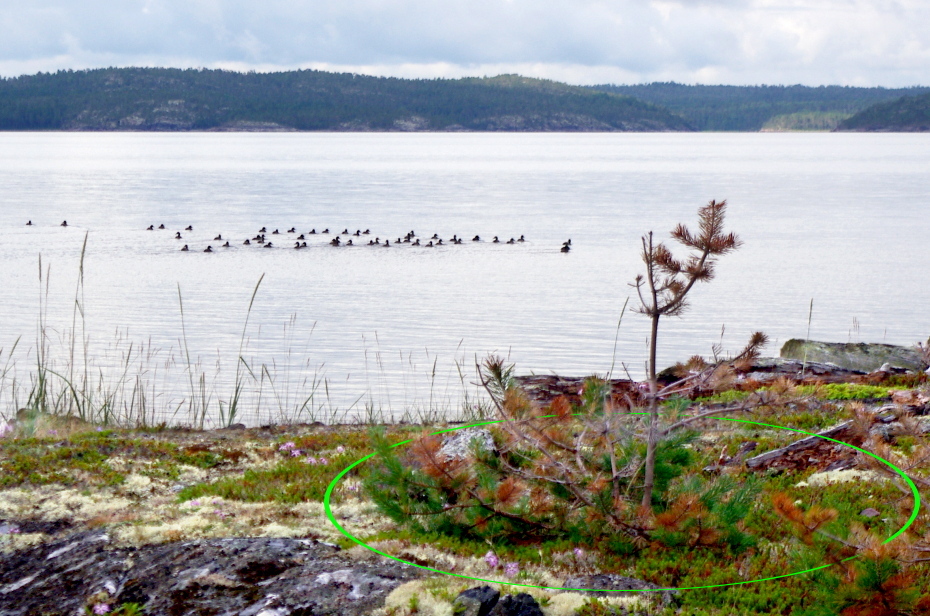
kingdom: Plantae
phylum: Tracheophyta
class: Pinopsida
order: Pinales
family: Pinaceae
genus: Pinus
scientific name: Pinus sylvestris
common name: Scots pine
